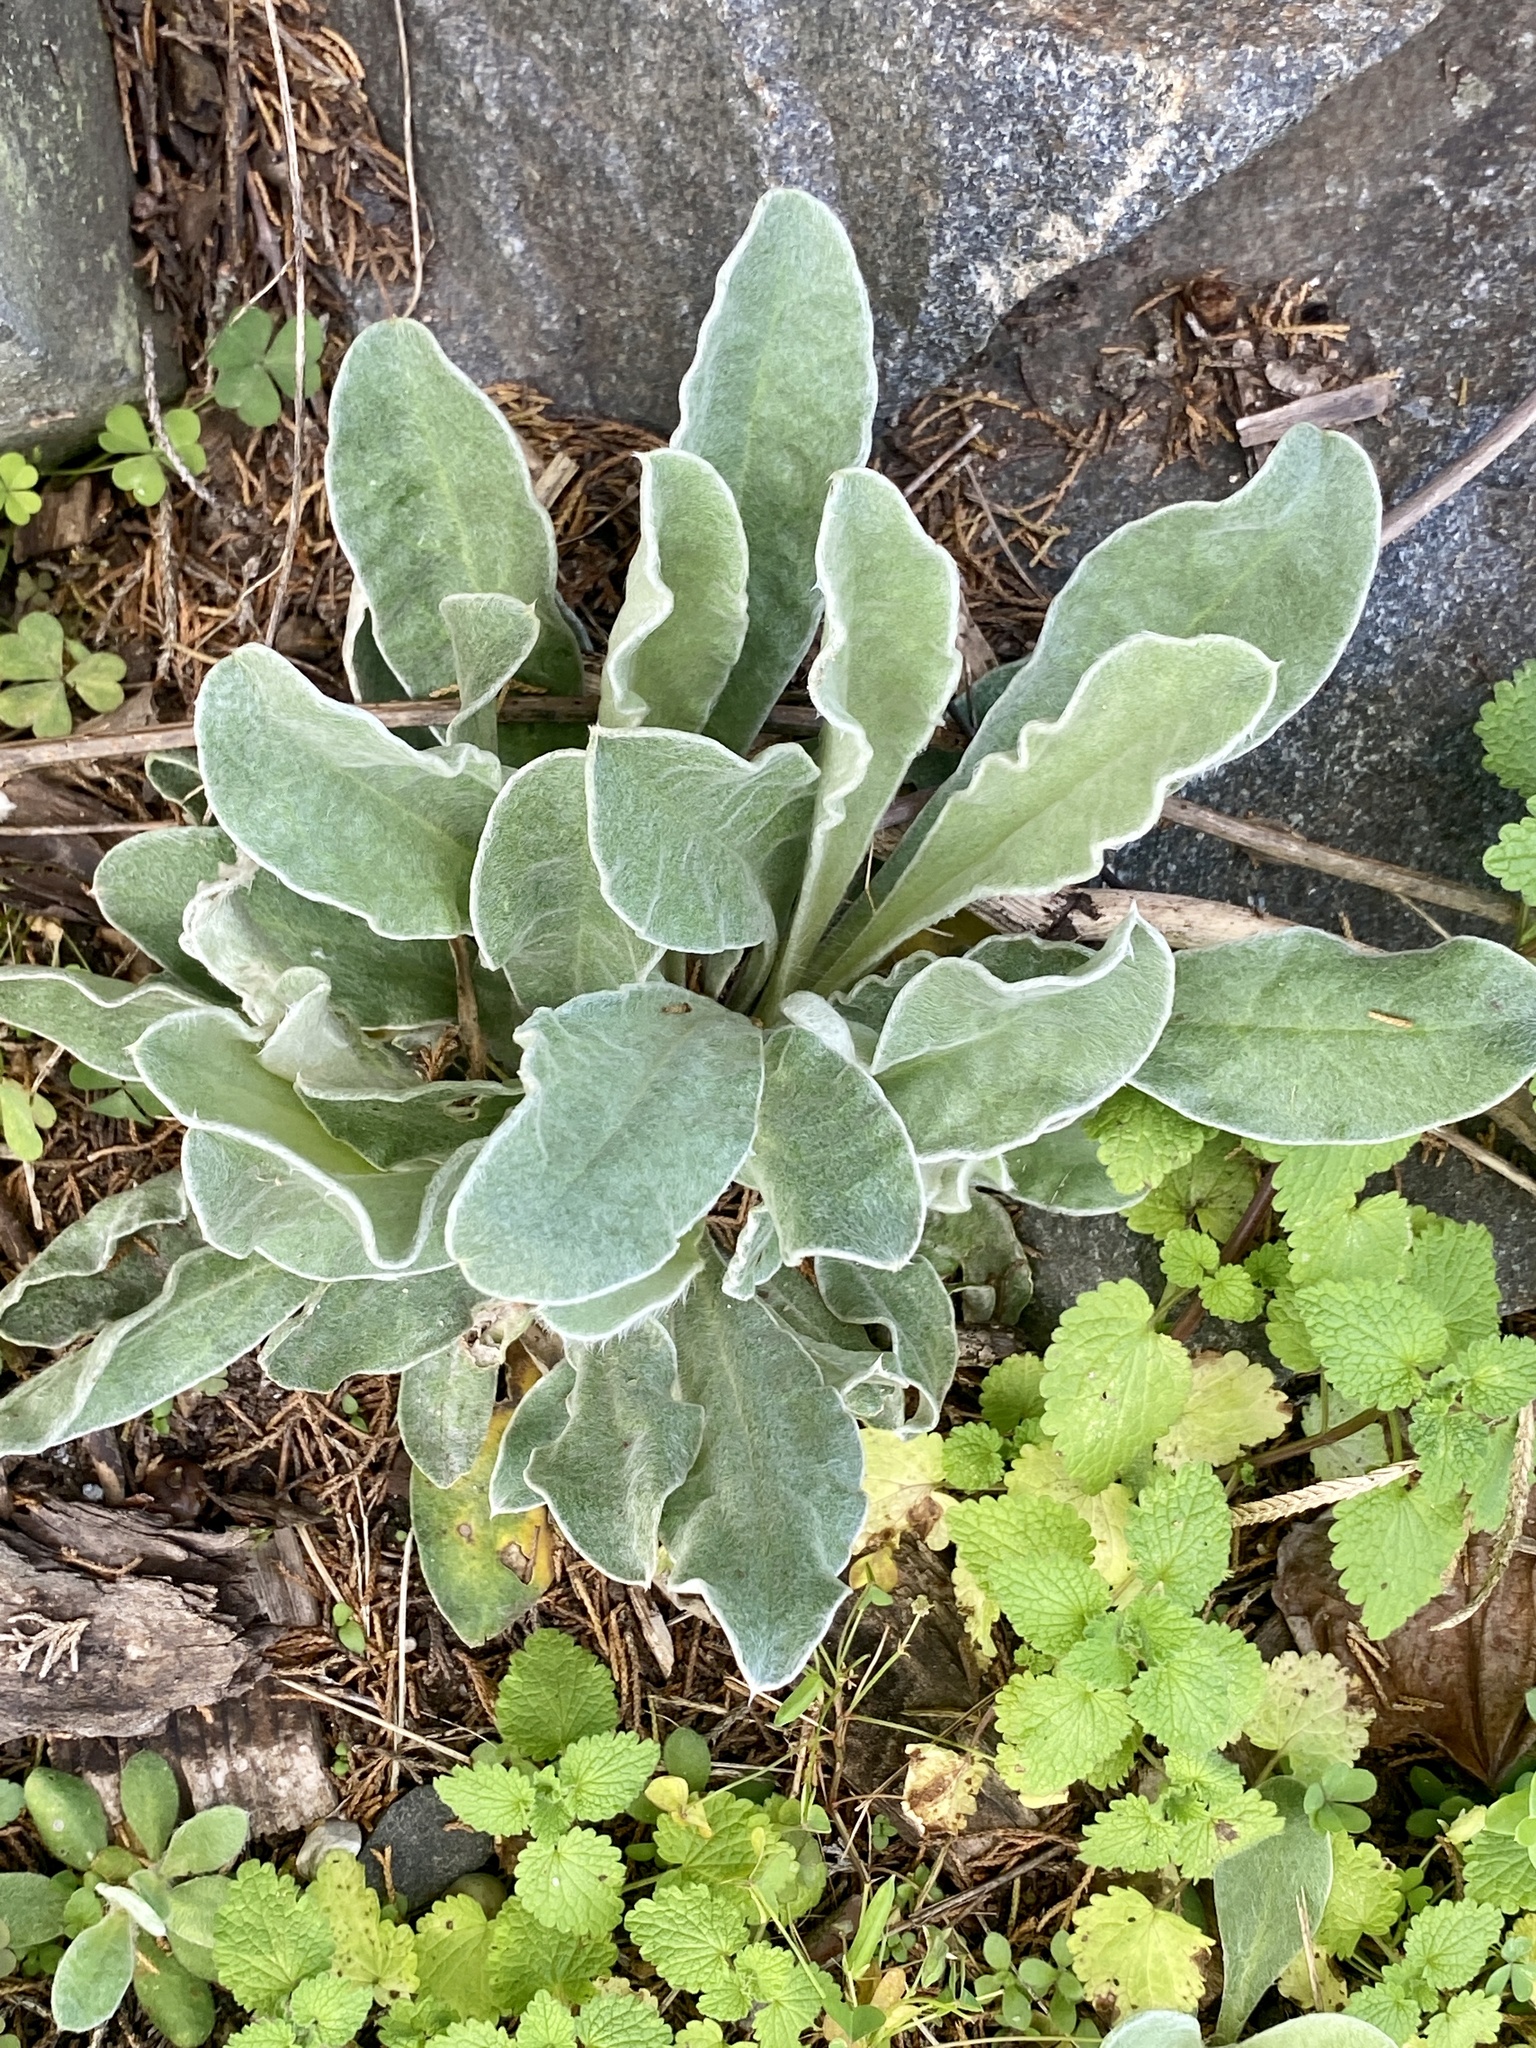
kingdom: Plantae
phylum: Tracheophyta
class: Magnoliopsida
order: Caryophyllales
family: Caryophyllaceae
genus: Silene
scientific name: Silene coronaria
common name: Rose campion
